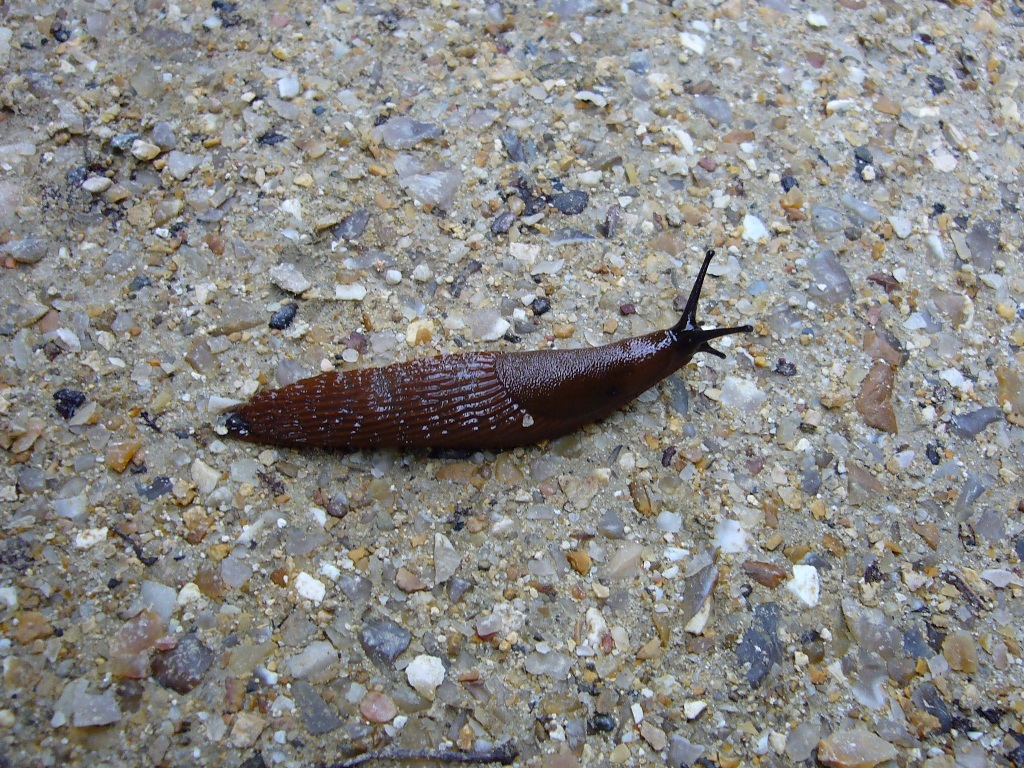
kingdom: Animalia
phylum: Mollusca
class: Gastropoda
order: Stylommatophora
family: Arionidae
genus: Arion
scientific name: Arion ater
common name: Black arion
